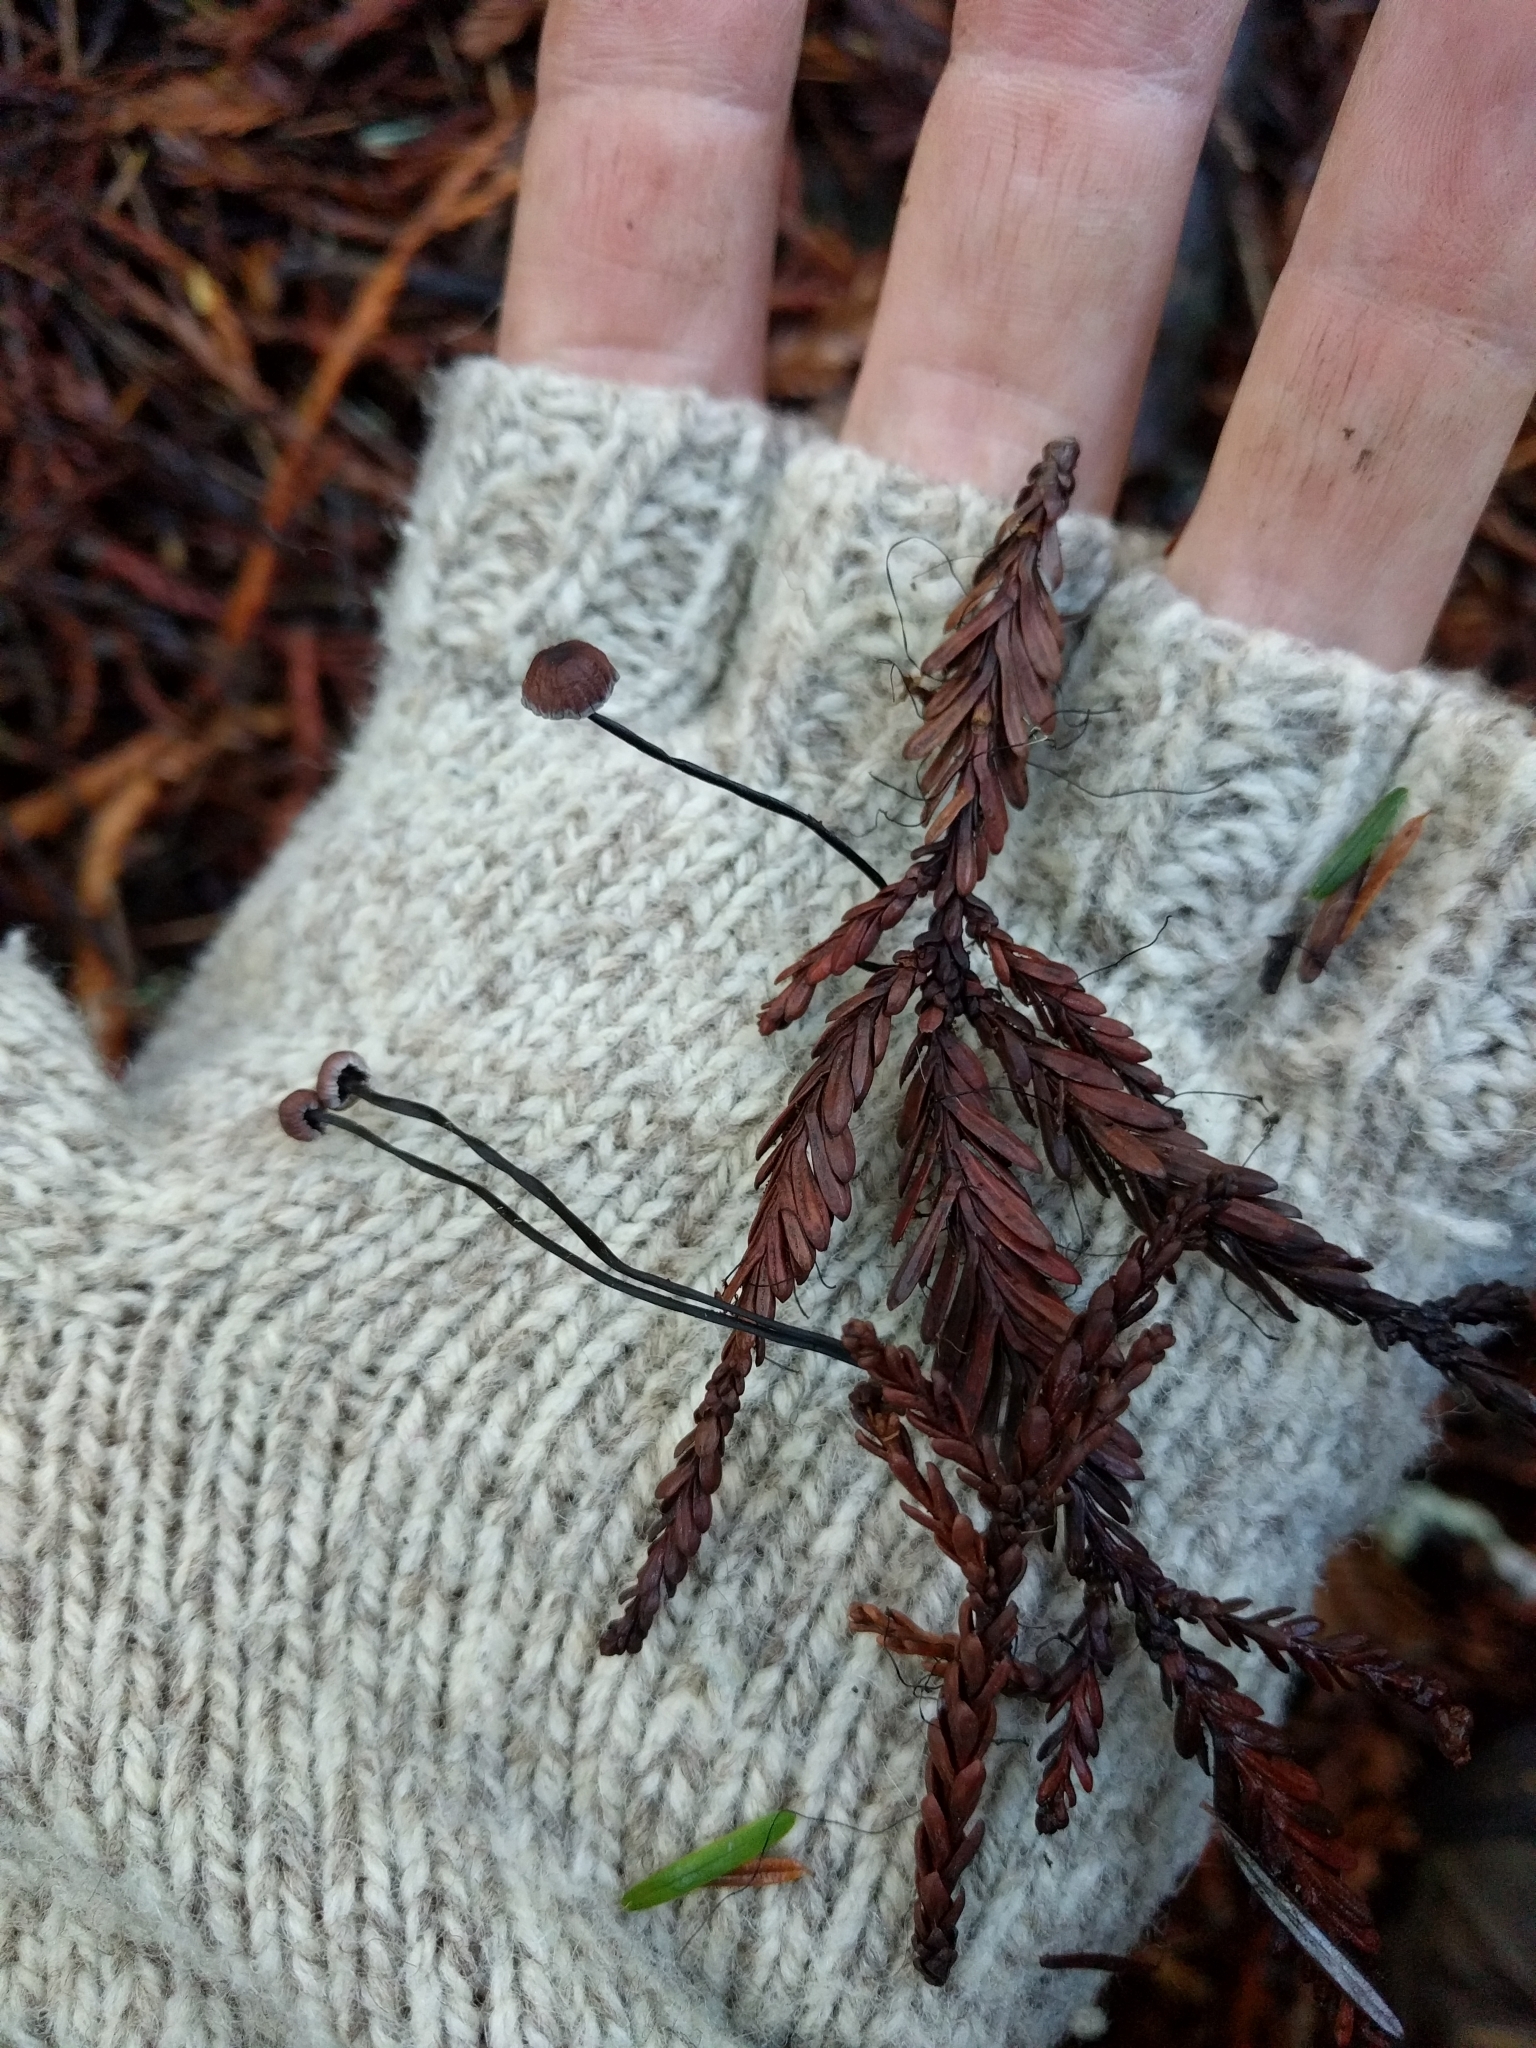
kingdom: Fungi
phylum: Basidiomycota
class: Agaricomycetes
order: Agaricales
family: Omphalotaceae
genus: Gymnopus
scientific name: Gymnopus androsaceus
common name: Horse-hair fungus
